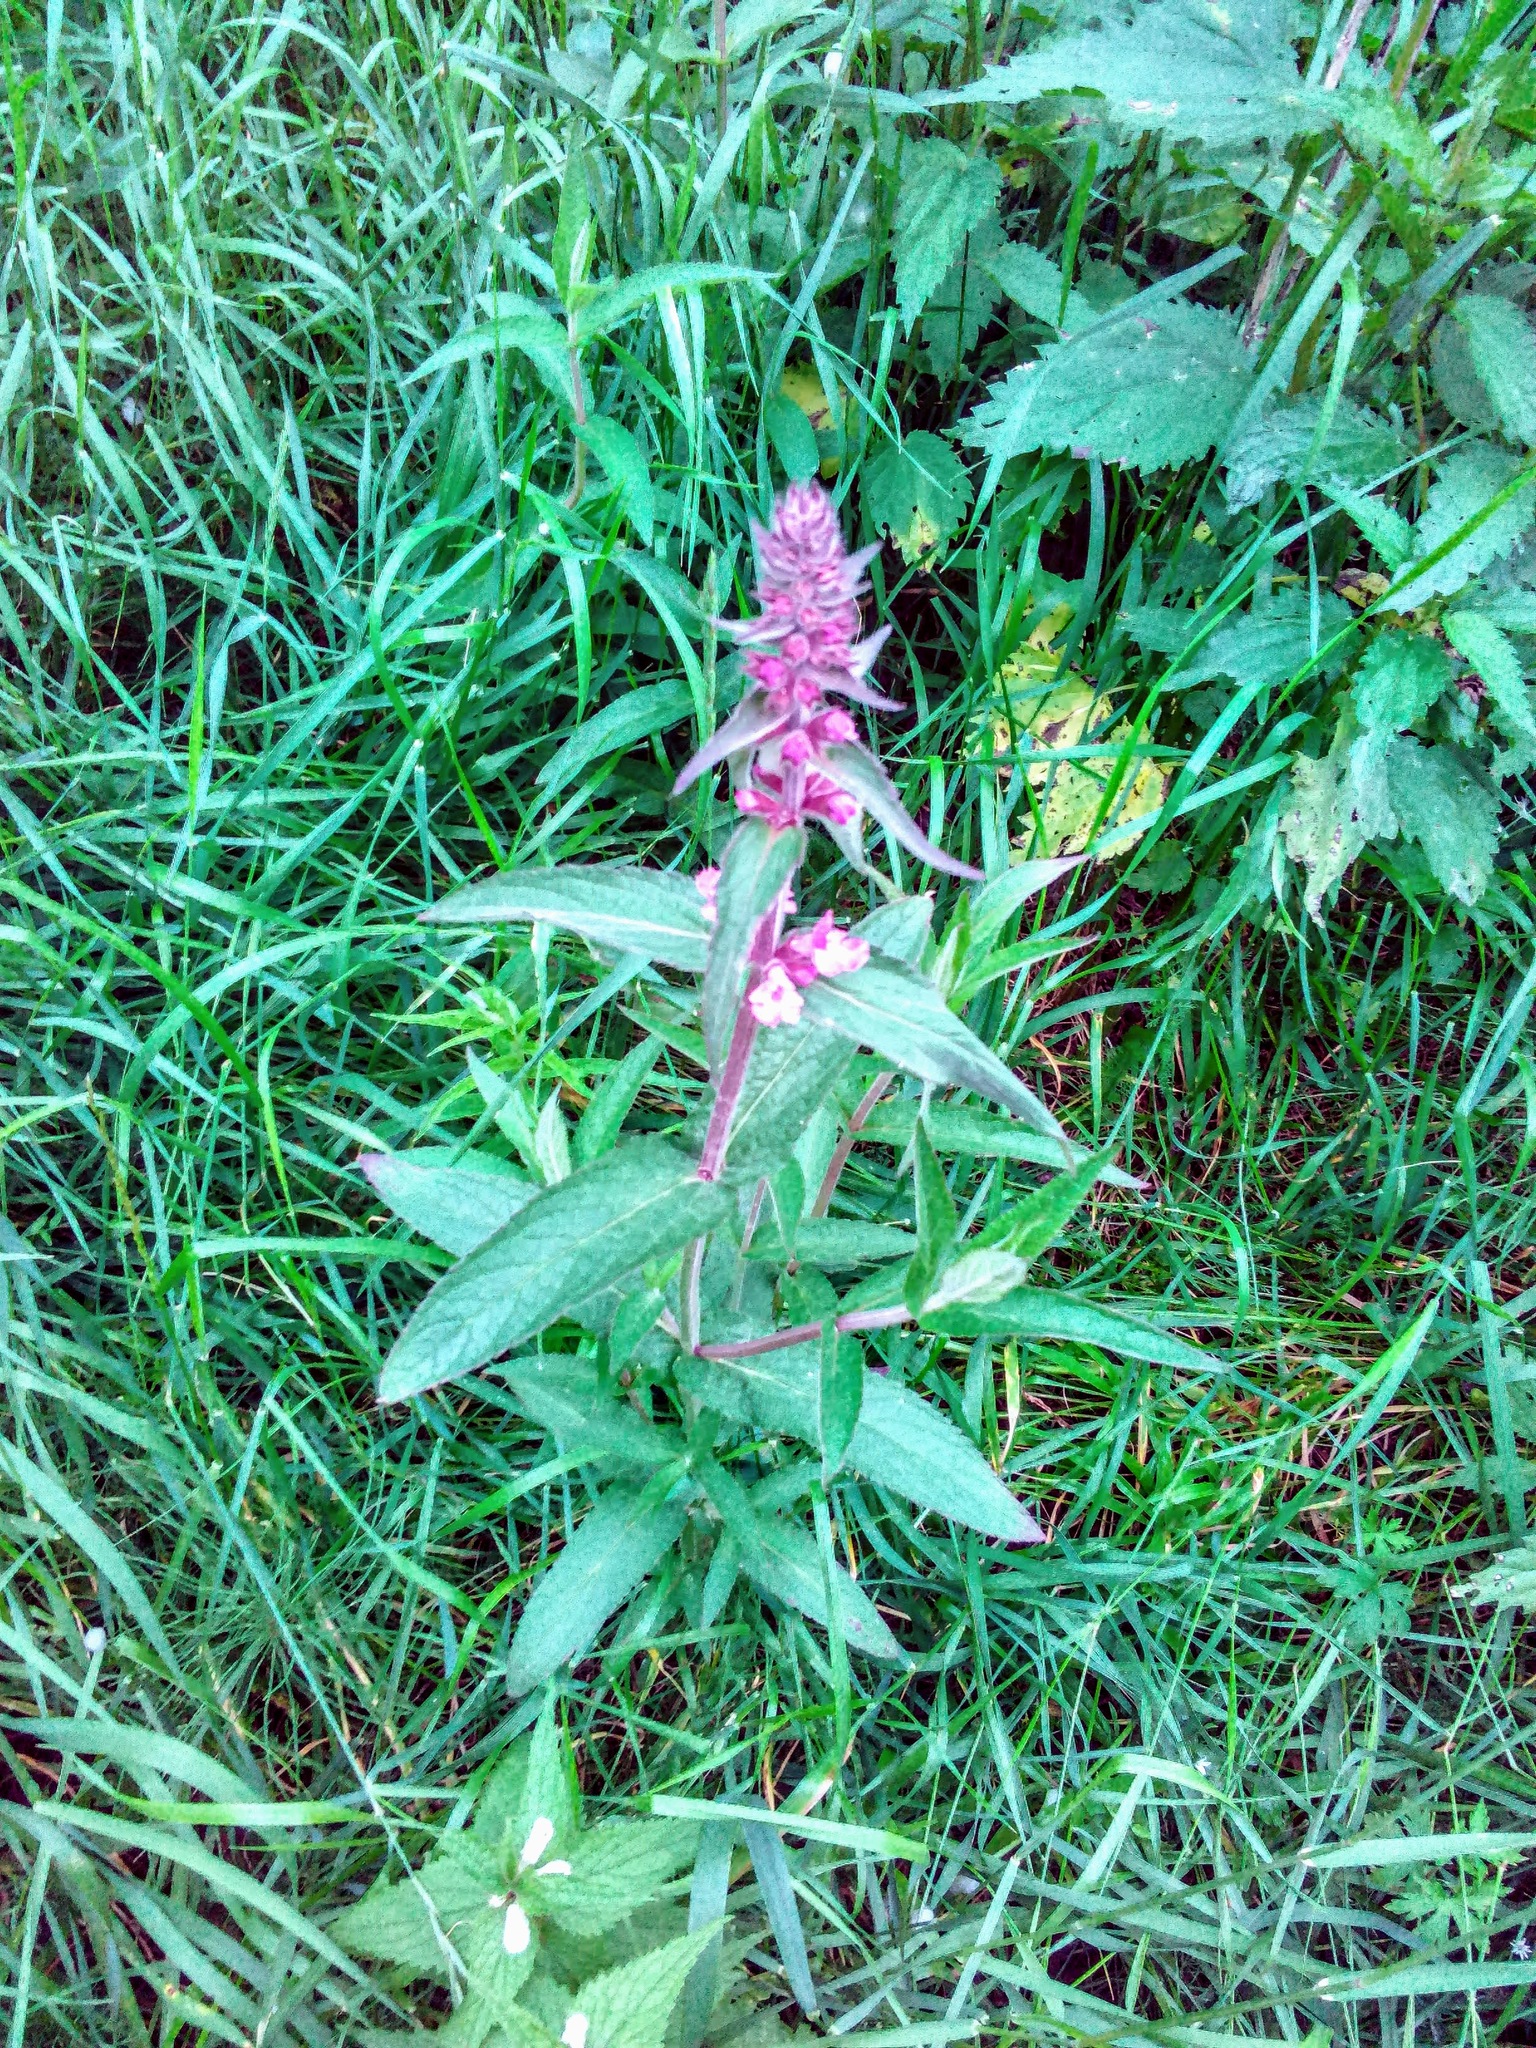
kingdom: Plantae
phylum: Tracheophyta
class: Magnoliopsida
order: Lamiales
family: Lamiaceae
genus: Stachys
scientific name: Stachys palustris
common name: Marsh woundwort
